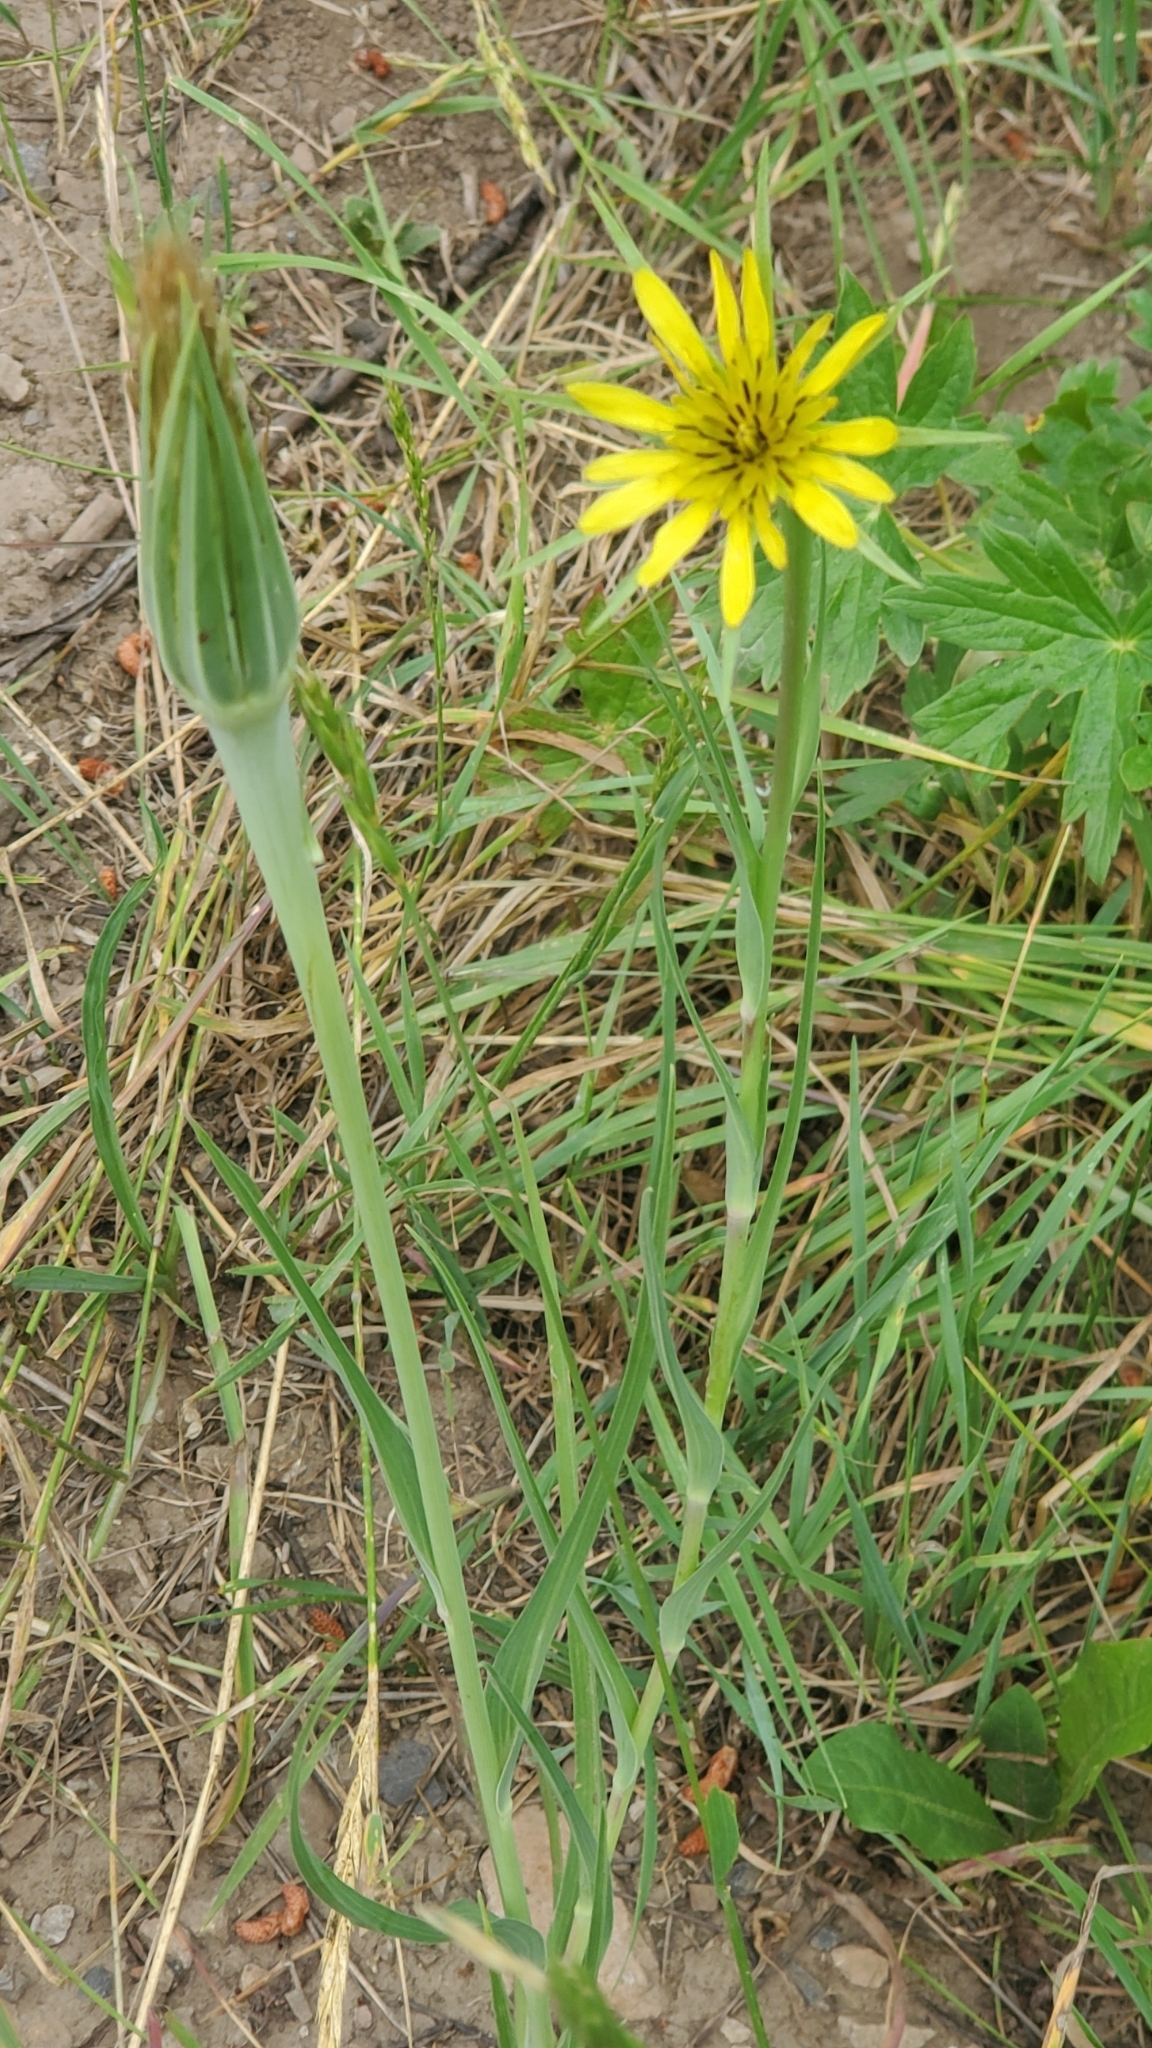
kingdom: Plantae
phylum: Tracheophyta
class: Magnoliopsida
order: Asterales
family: Asteraceae
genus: Tragopogon
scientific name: Tragopogon dubius
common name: Yellow salsify
